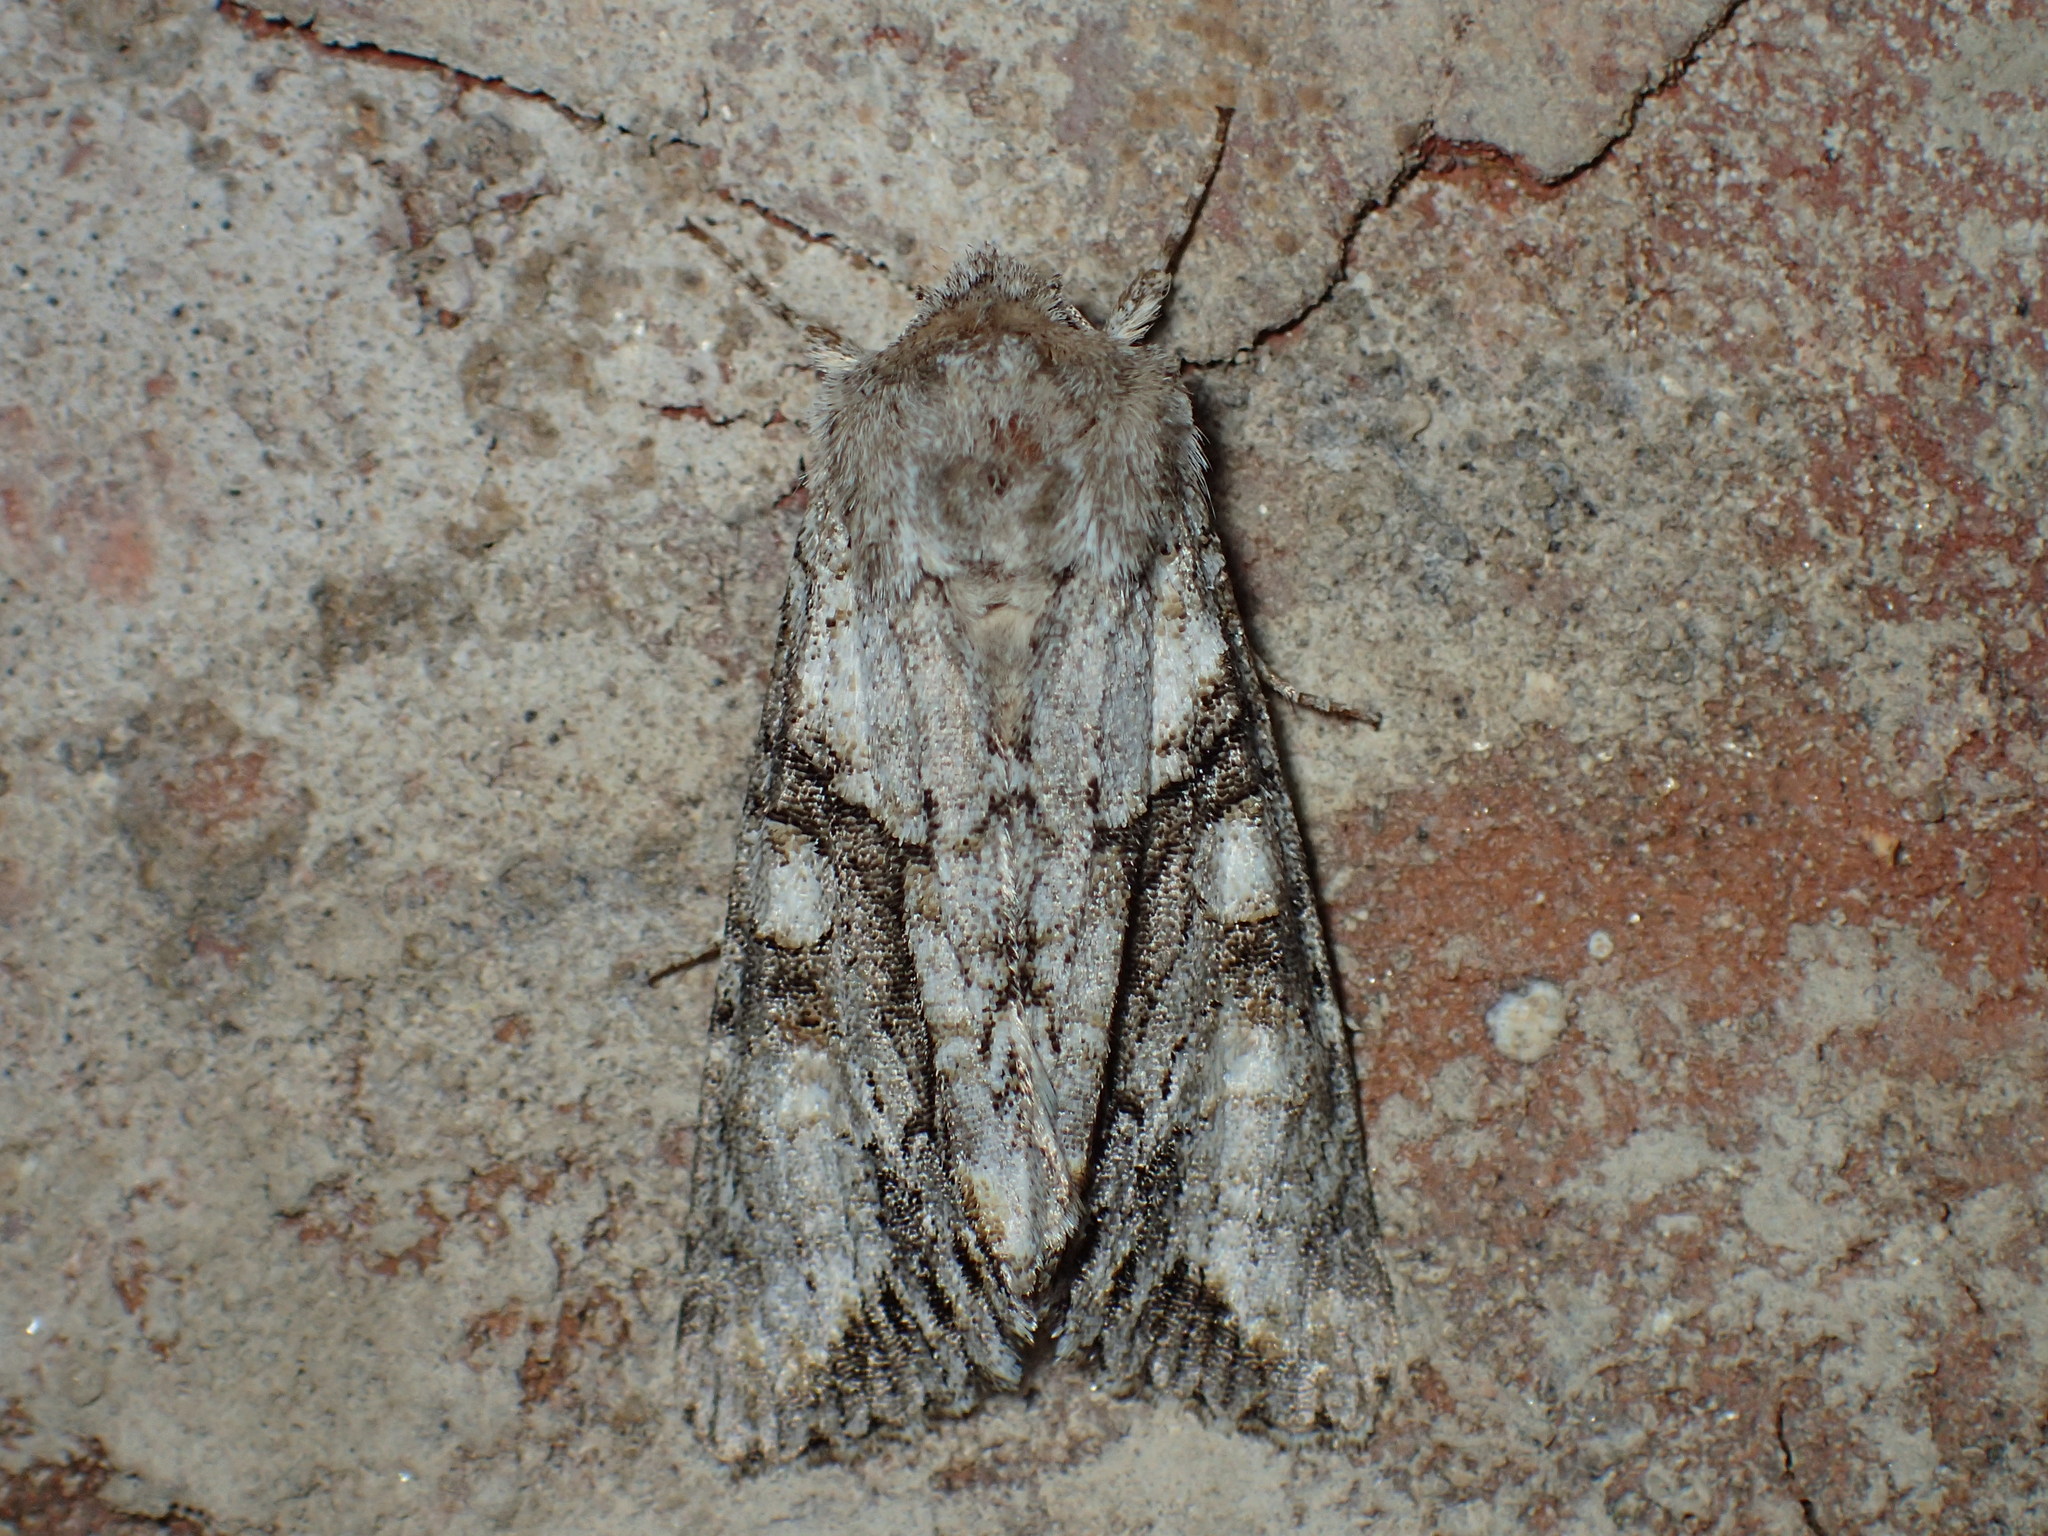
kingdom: Animalia
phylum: Arthropoda
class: Insecta
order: Lepidoptera
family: Noctuidae
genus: Achatia
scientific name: Achatia distincta
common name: Distinct quaker
